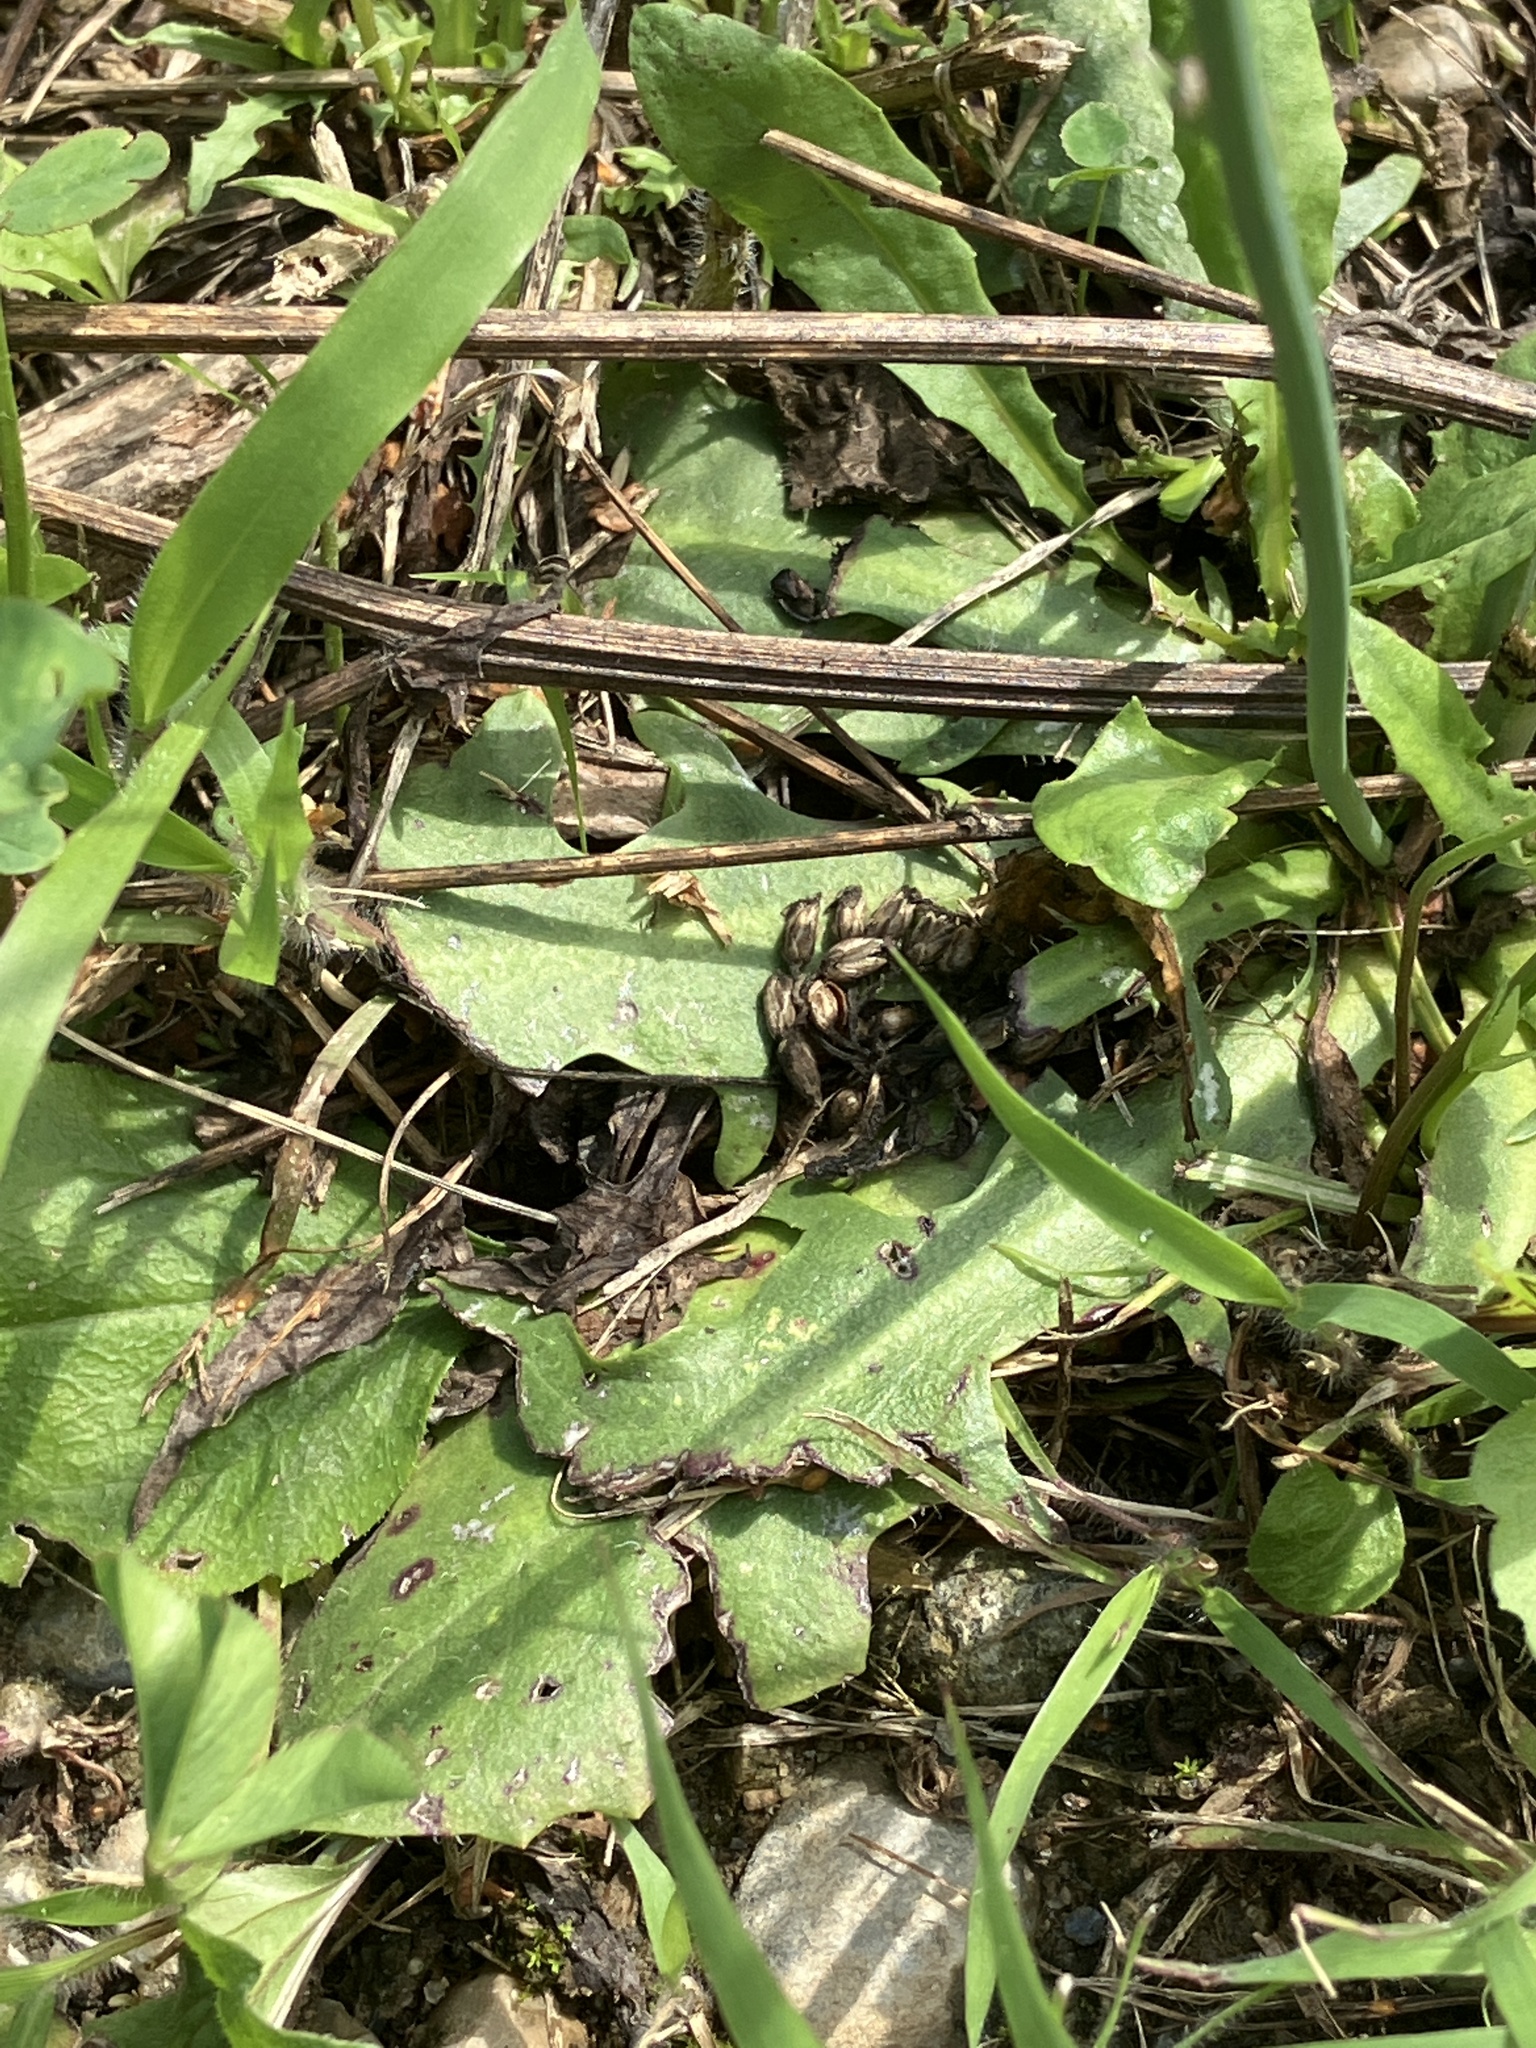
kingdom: Plantae
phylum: Tracheophyta
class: Magnoliopsida
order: Asterales
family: Asteraceae
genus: Hypochaeris
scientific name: Hypochaeris radicata
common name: Flatweed
